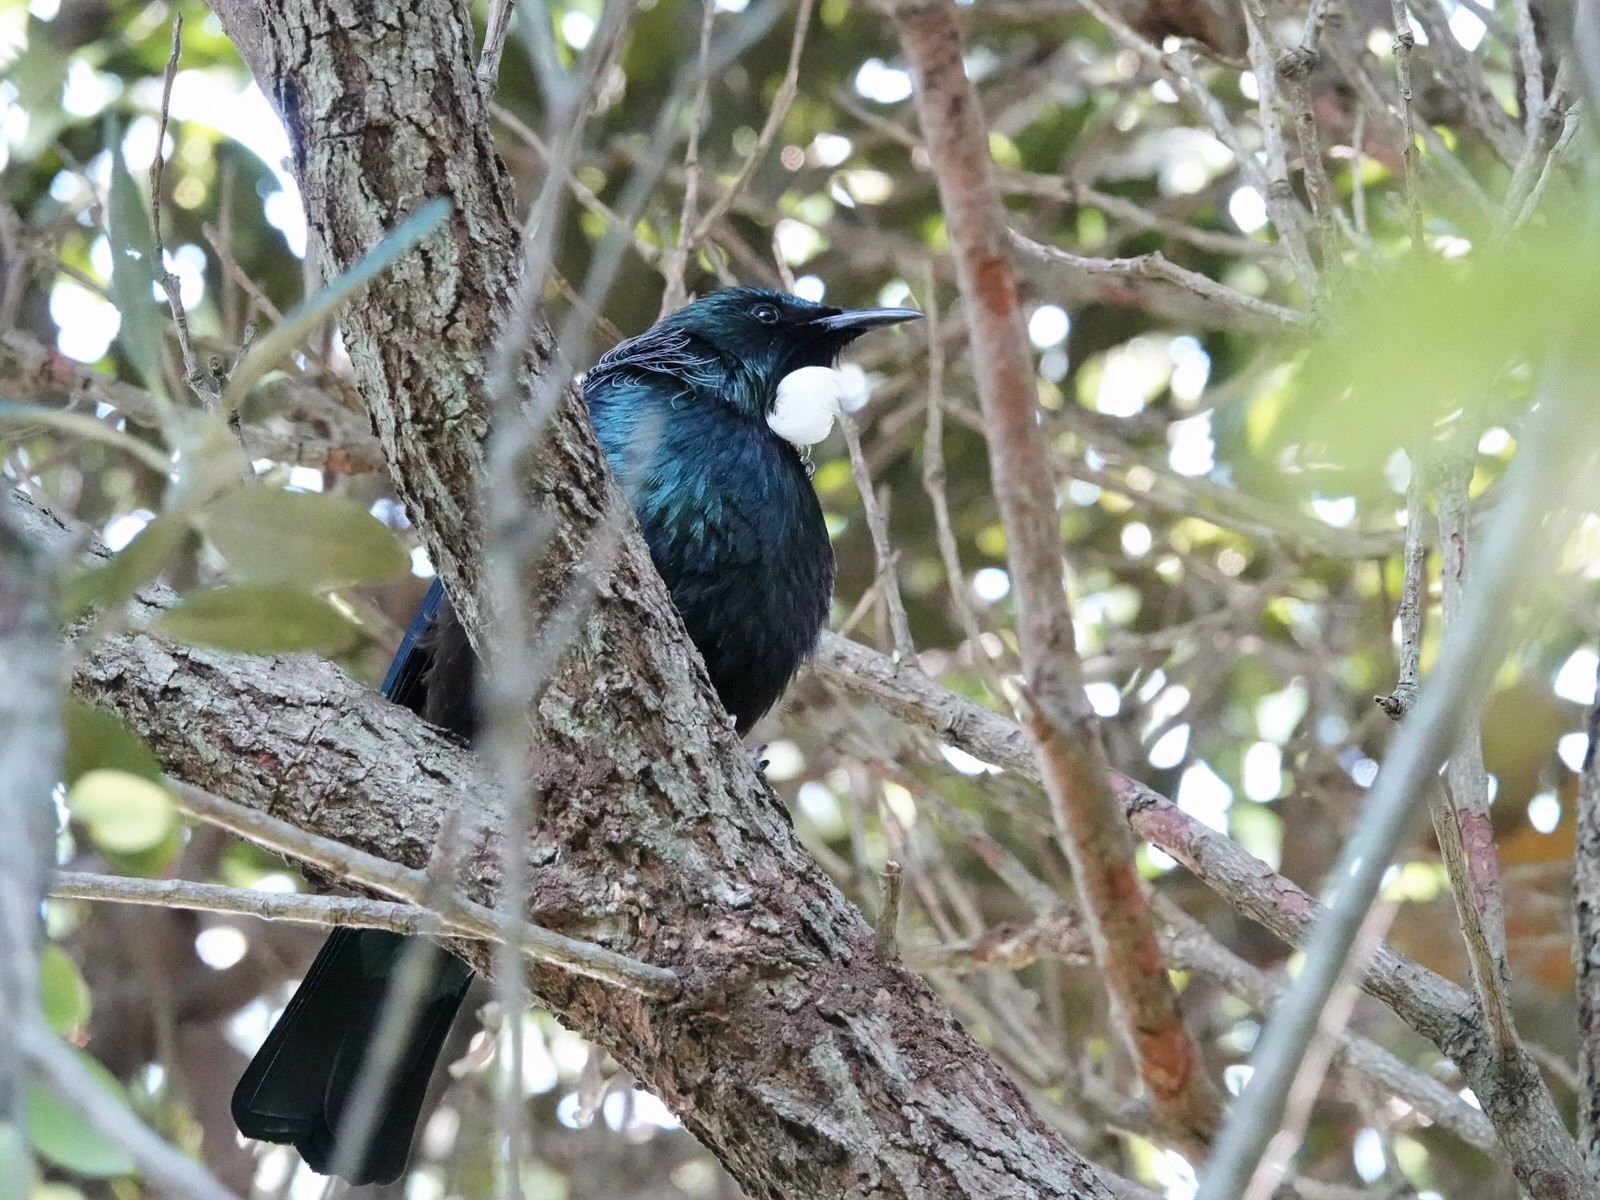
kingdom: Animalia
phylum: Chordata
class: Aves
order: Passeriformes
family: Meliphagidae
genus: Prosthemadera
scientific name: Prosthemadera novaeseelandiae
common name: Tui
